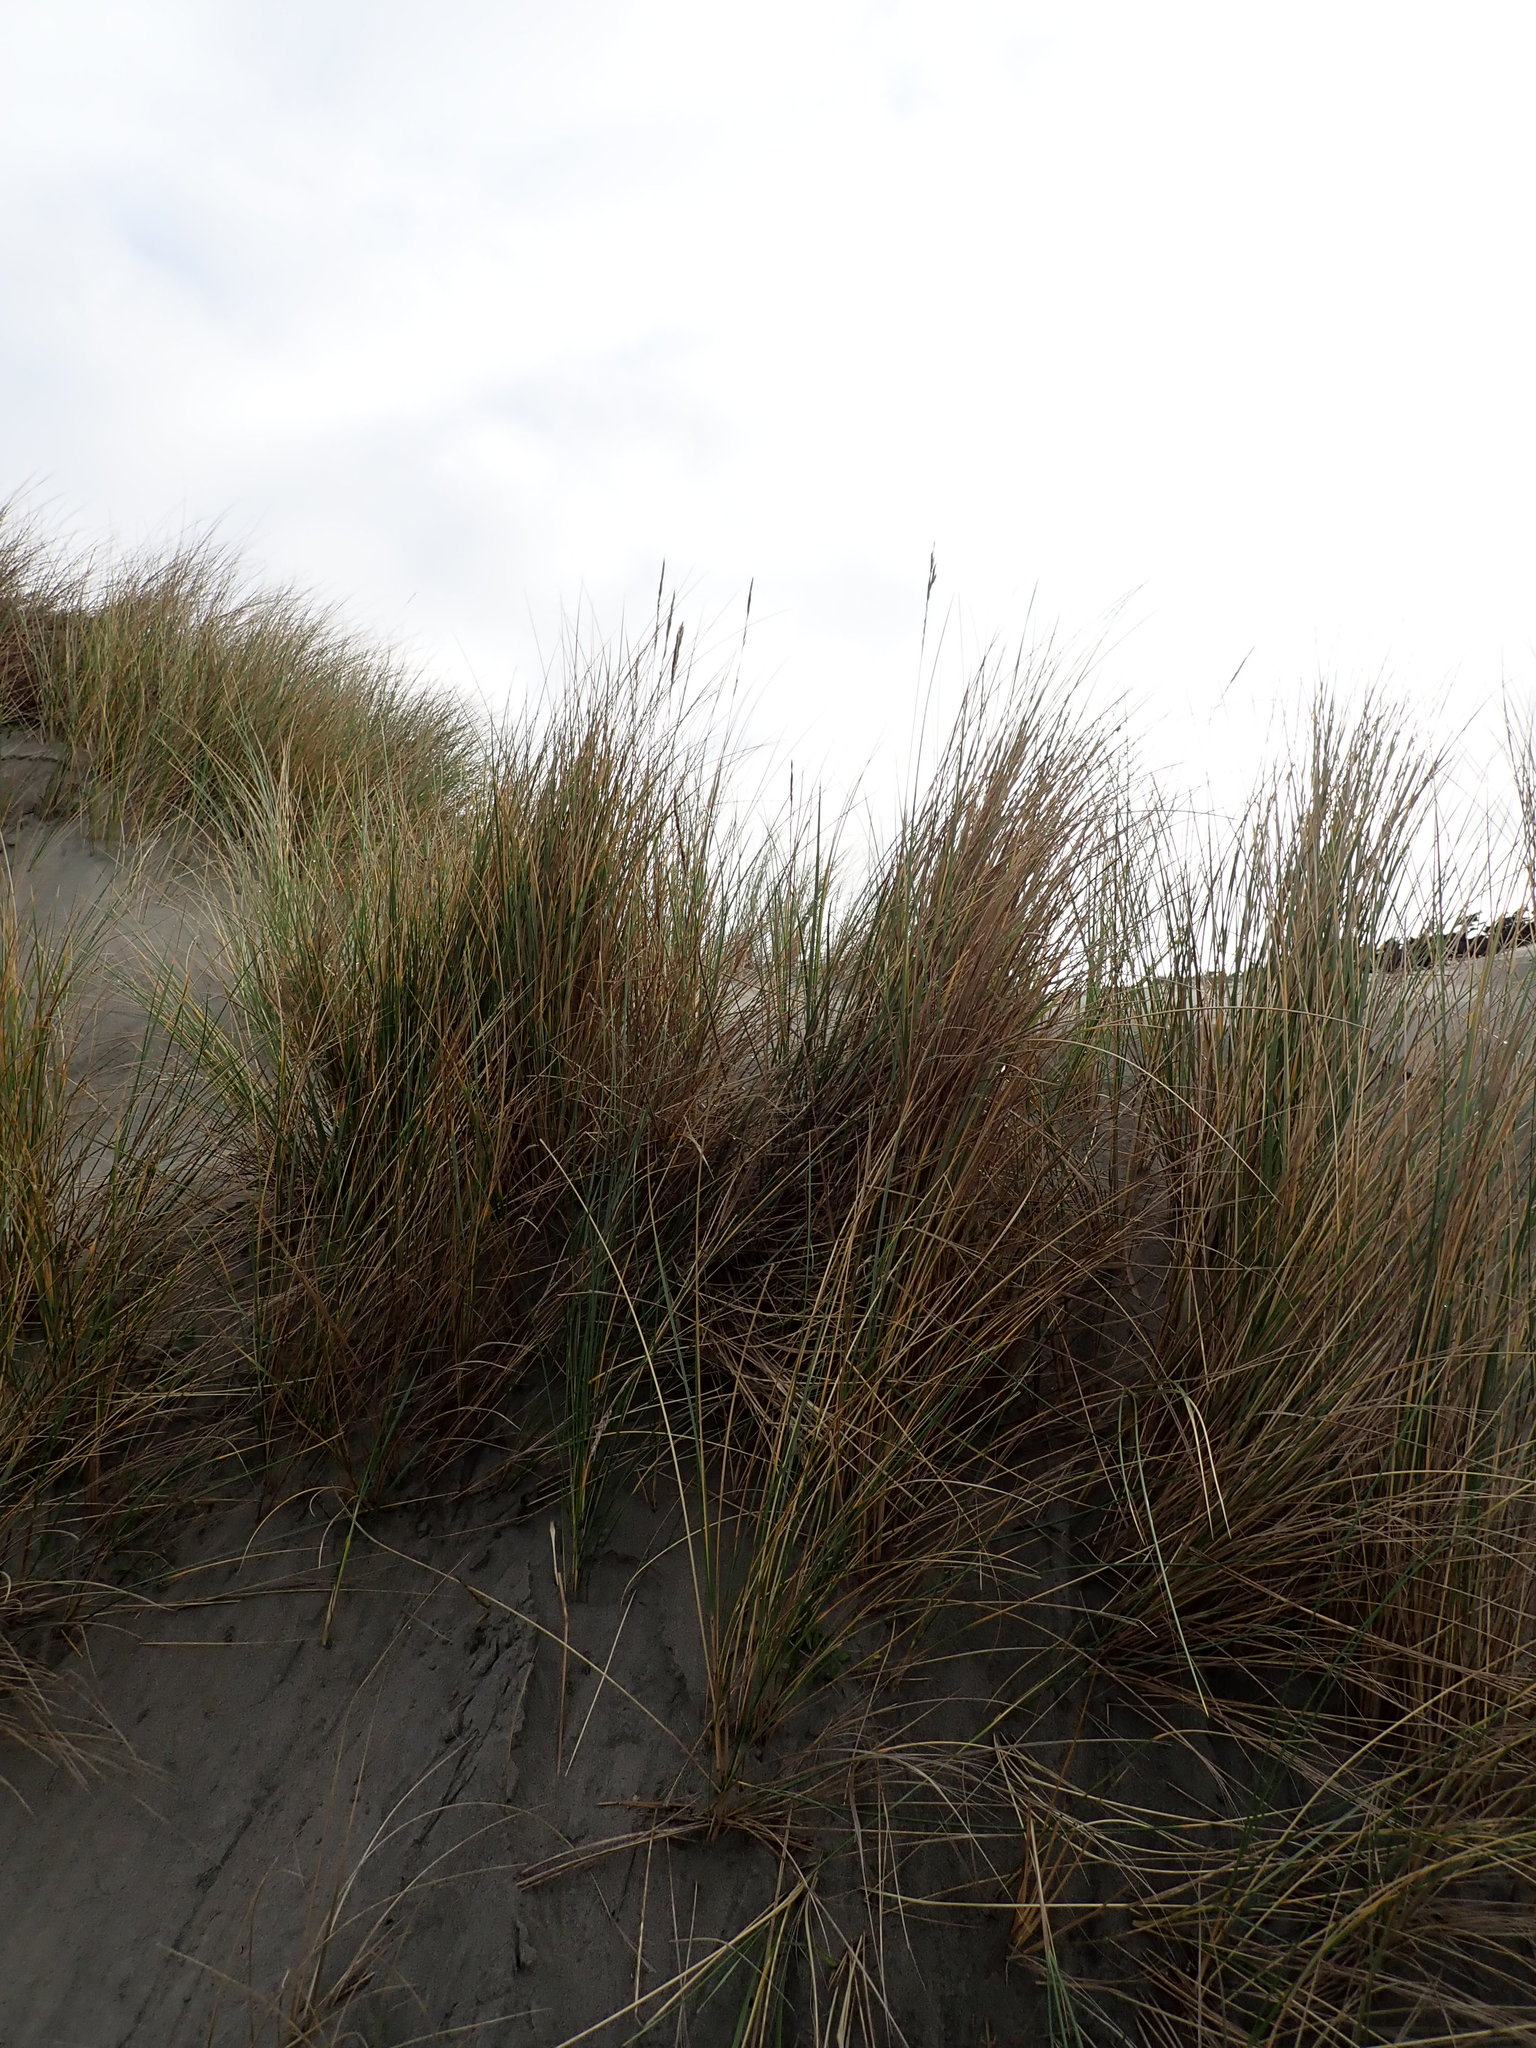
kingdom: Plantae
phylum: Tracheophyta
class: Liliopsida
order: Poales
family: Poaceae
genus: Calamagrostis
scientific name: Calamagrostis arenaria
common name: European beachgrass
